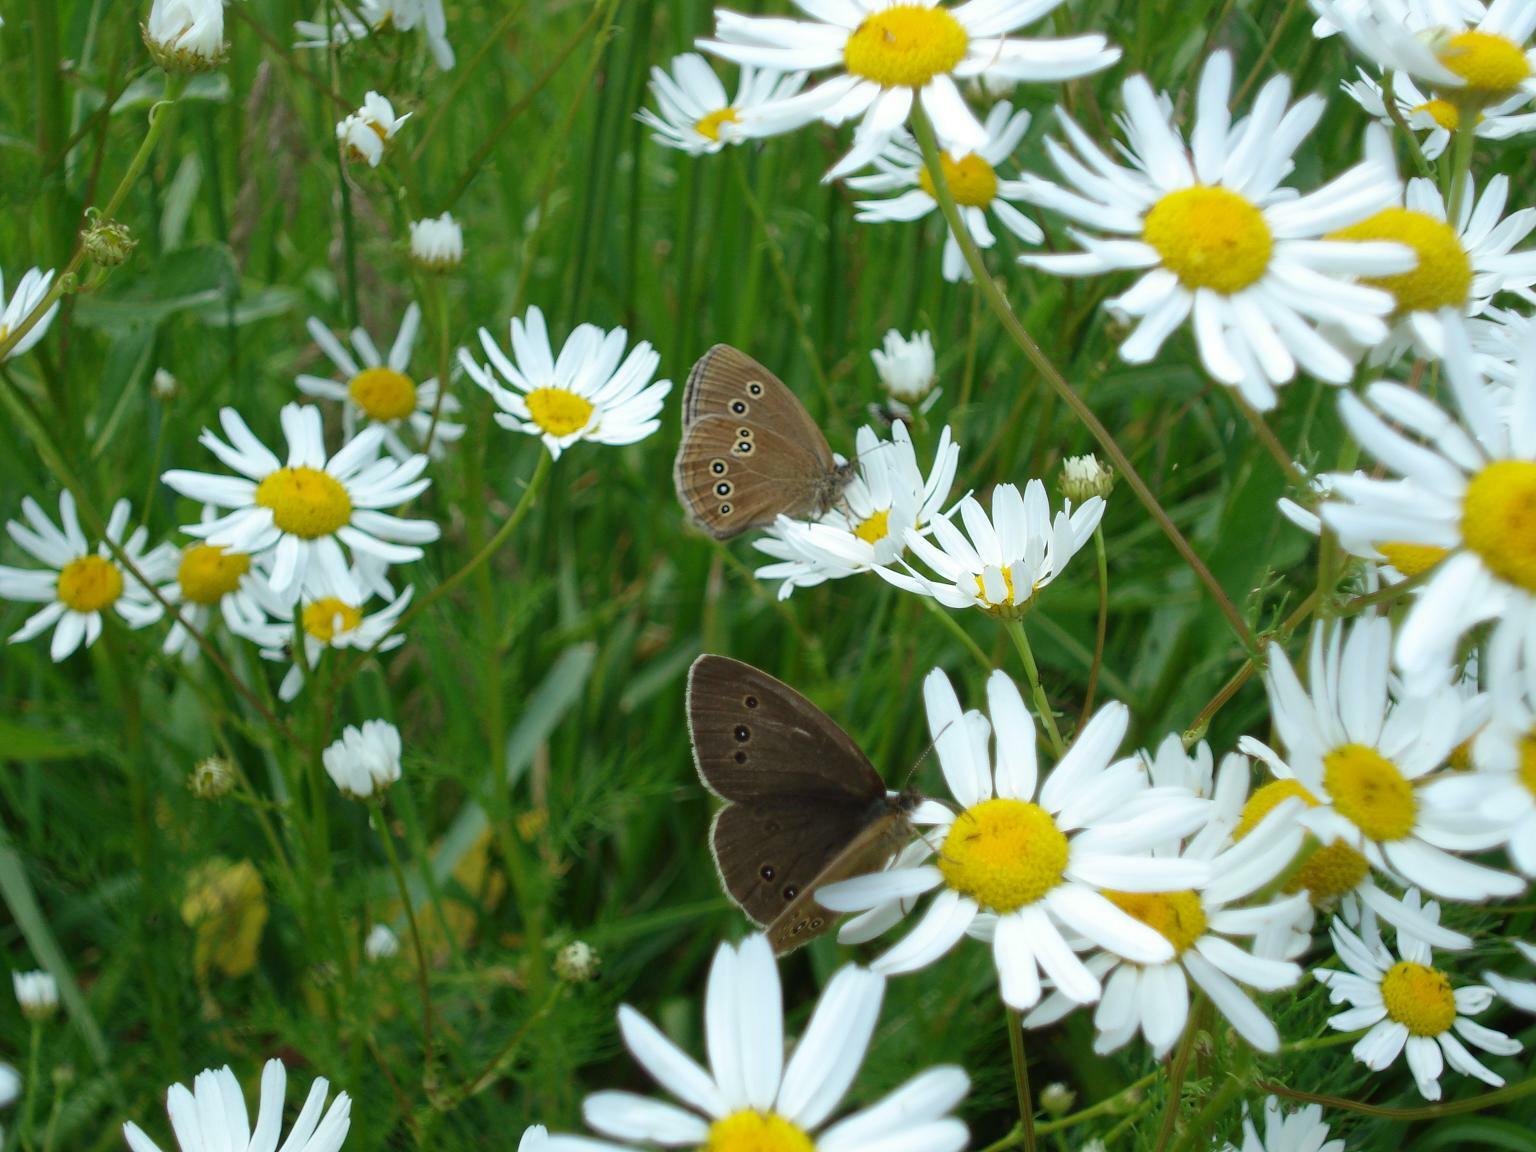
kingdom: Animalia
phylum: Arthropoda
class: Insecta
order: Lepidoptera
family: Nymphalidae
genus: Aphantopus
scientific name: Aphantopus hyperantus
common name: Ringlet
